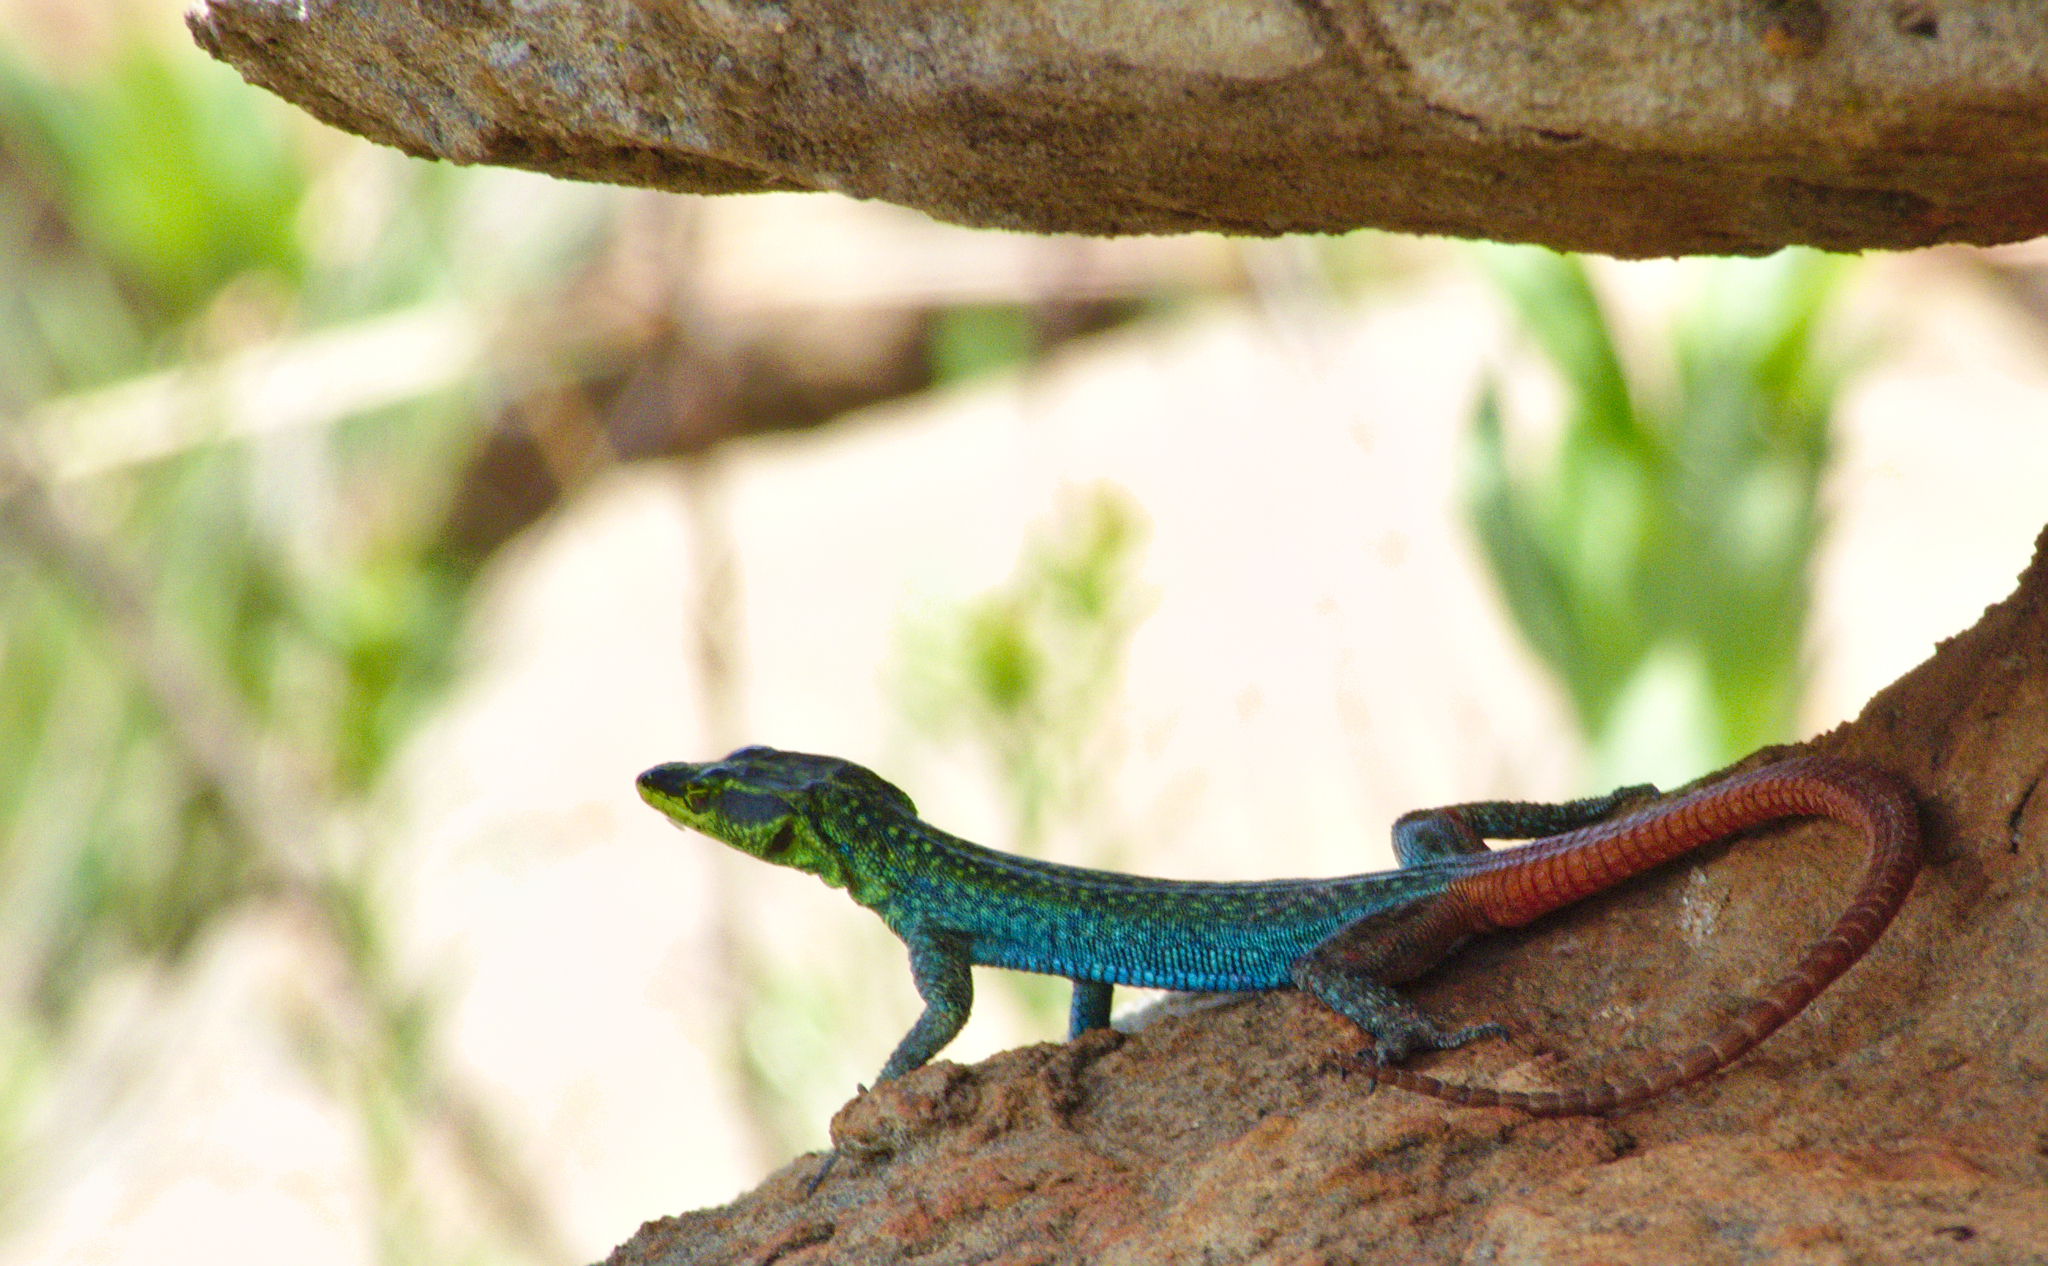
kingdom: Animalia
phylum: Chordata
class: Squamata
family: Cordylidae
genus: Platysaurus
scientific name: Platysaurus orientalis
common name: Sekhukune flat lizard
